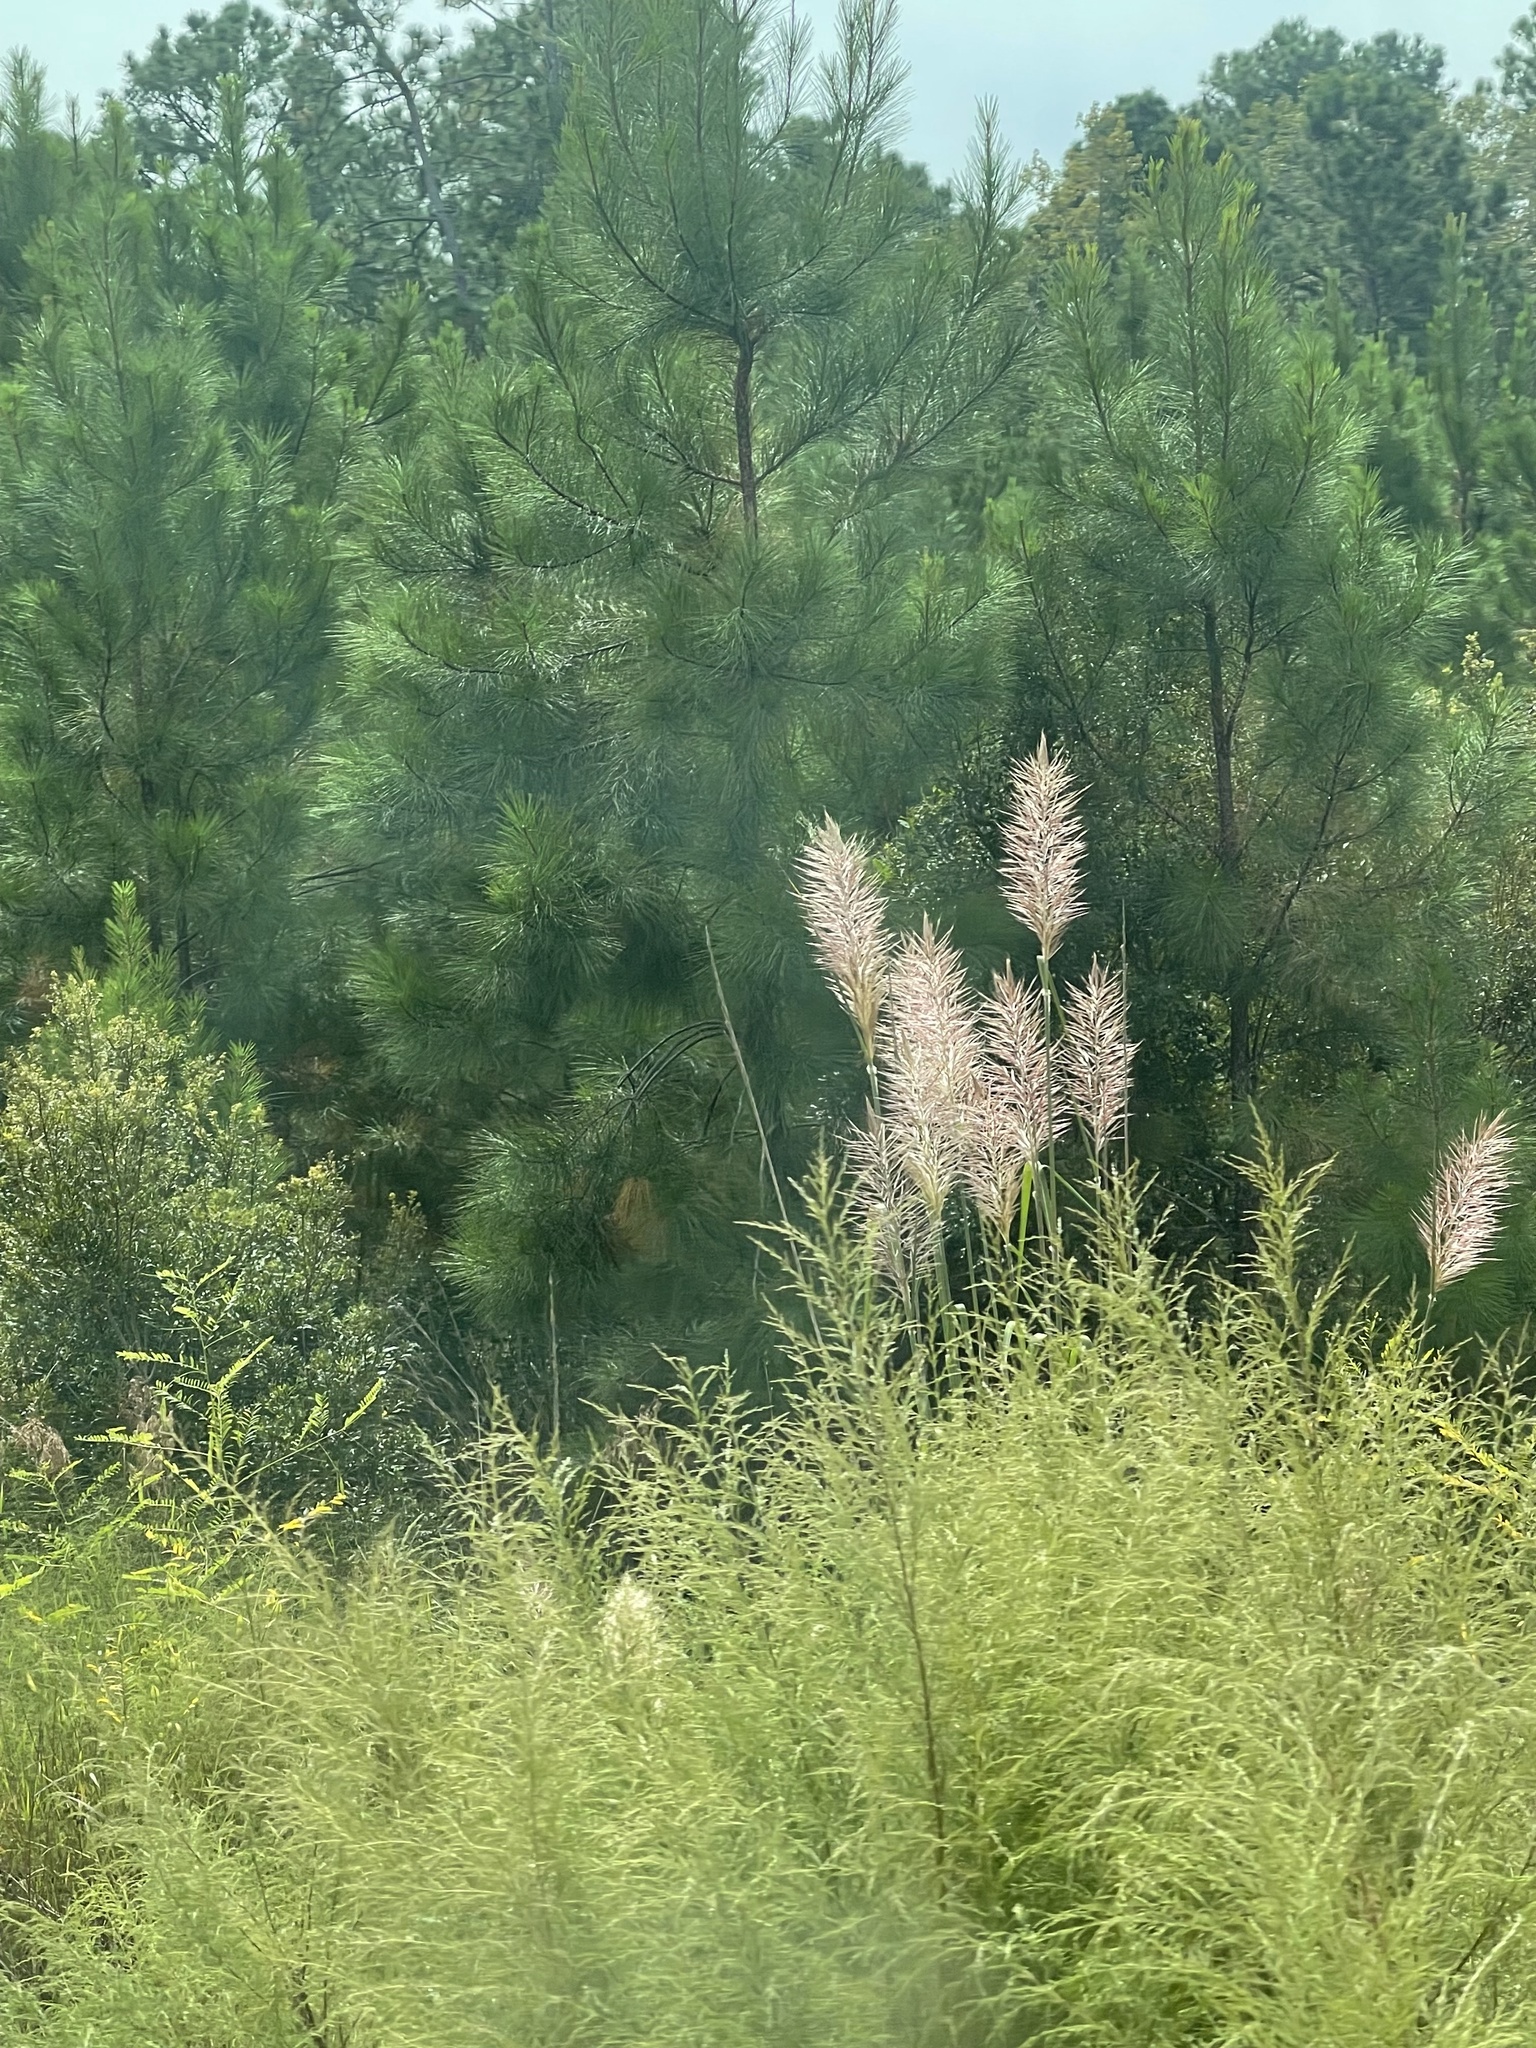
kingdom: Plantae
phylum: Tracheophyta
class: Liliopsida
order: Poales
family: Poaceae
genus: Erianthus
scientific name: Erianthus giganteus
